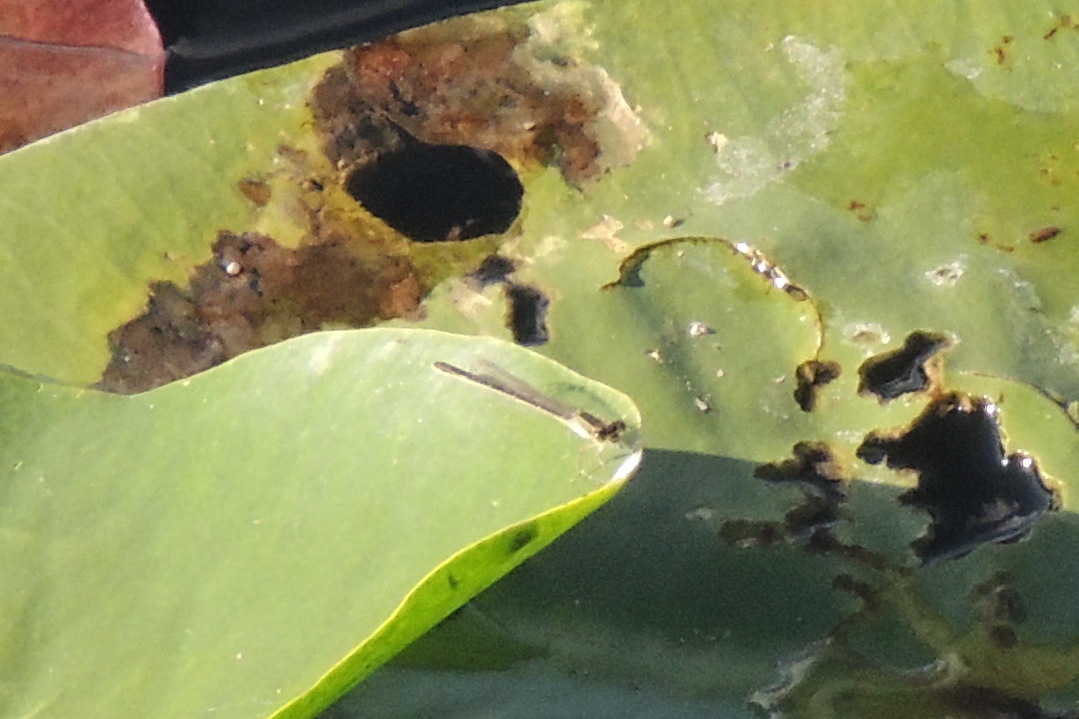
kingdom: Animalia
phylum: Arthropoda
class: Insecta
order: Odonata
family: Coenagrionidae
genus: Ischnura
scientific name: Ischnura ramburii
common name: Rambur's forktail
